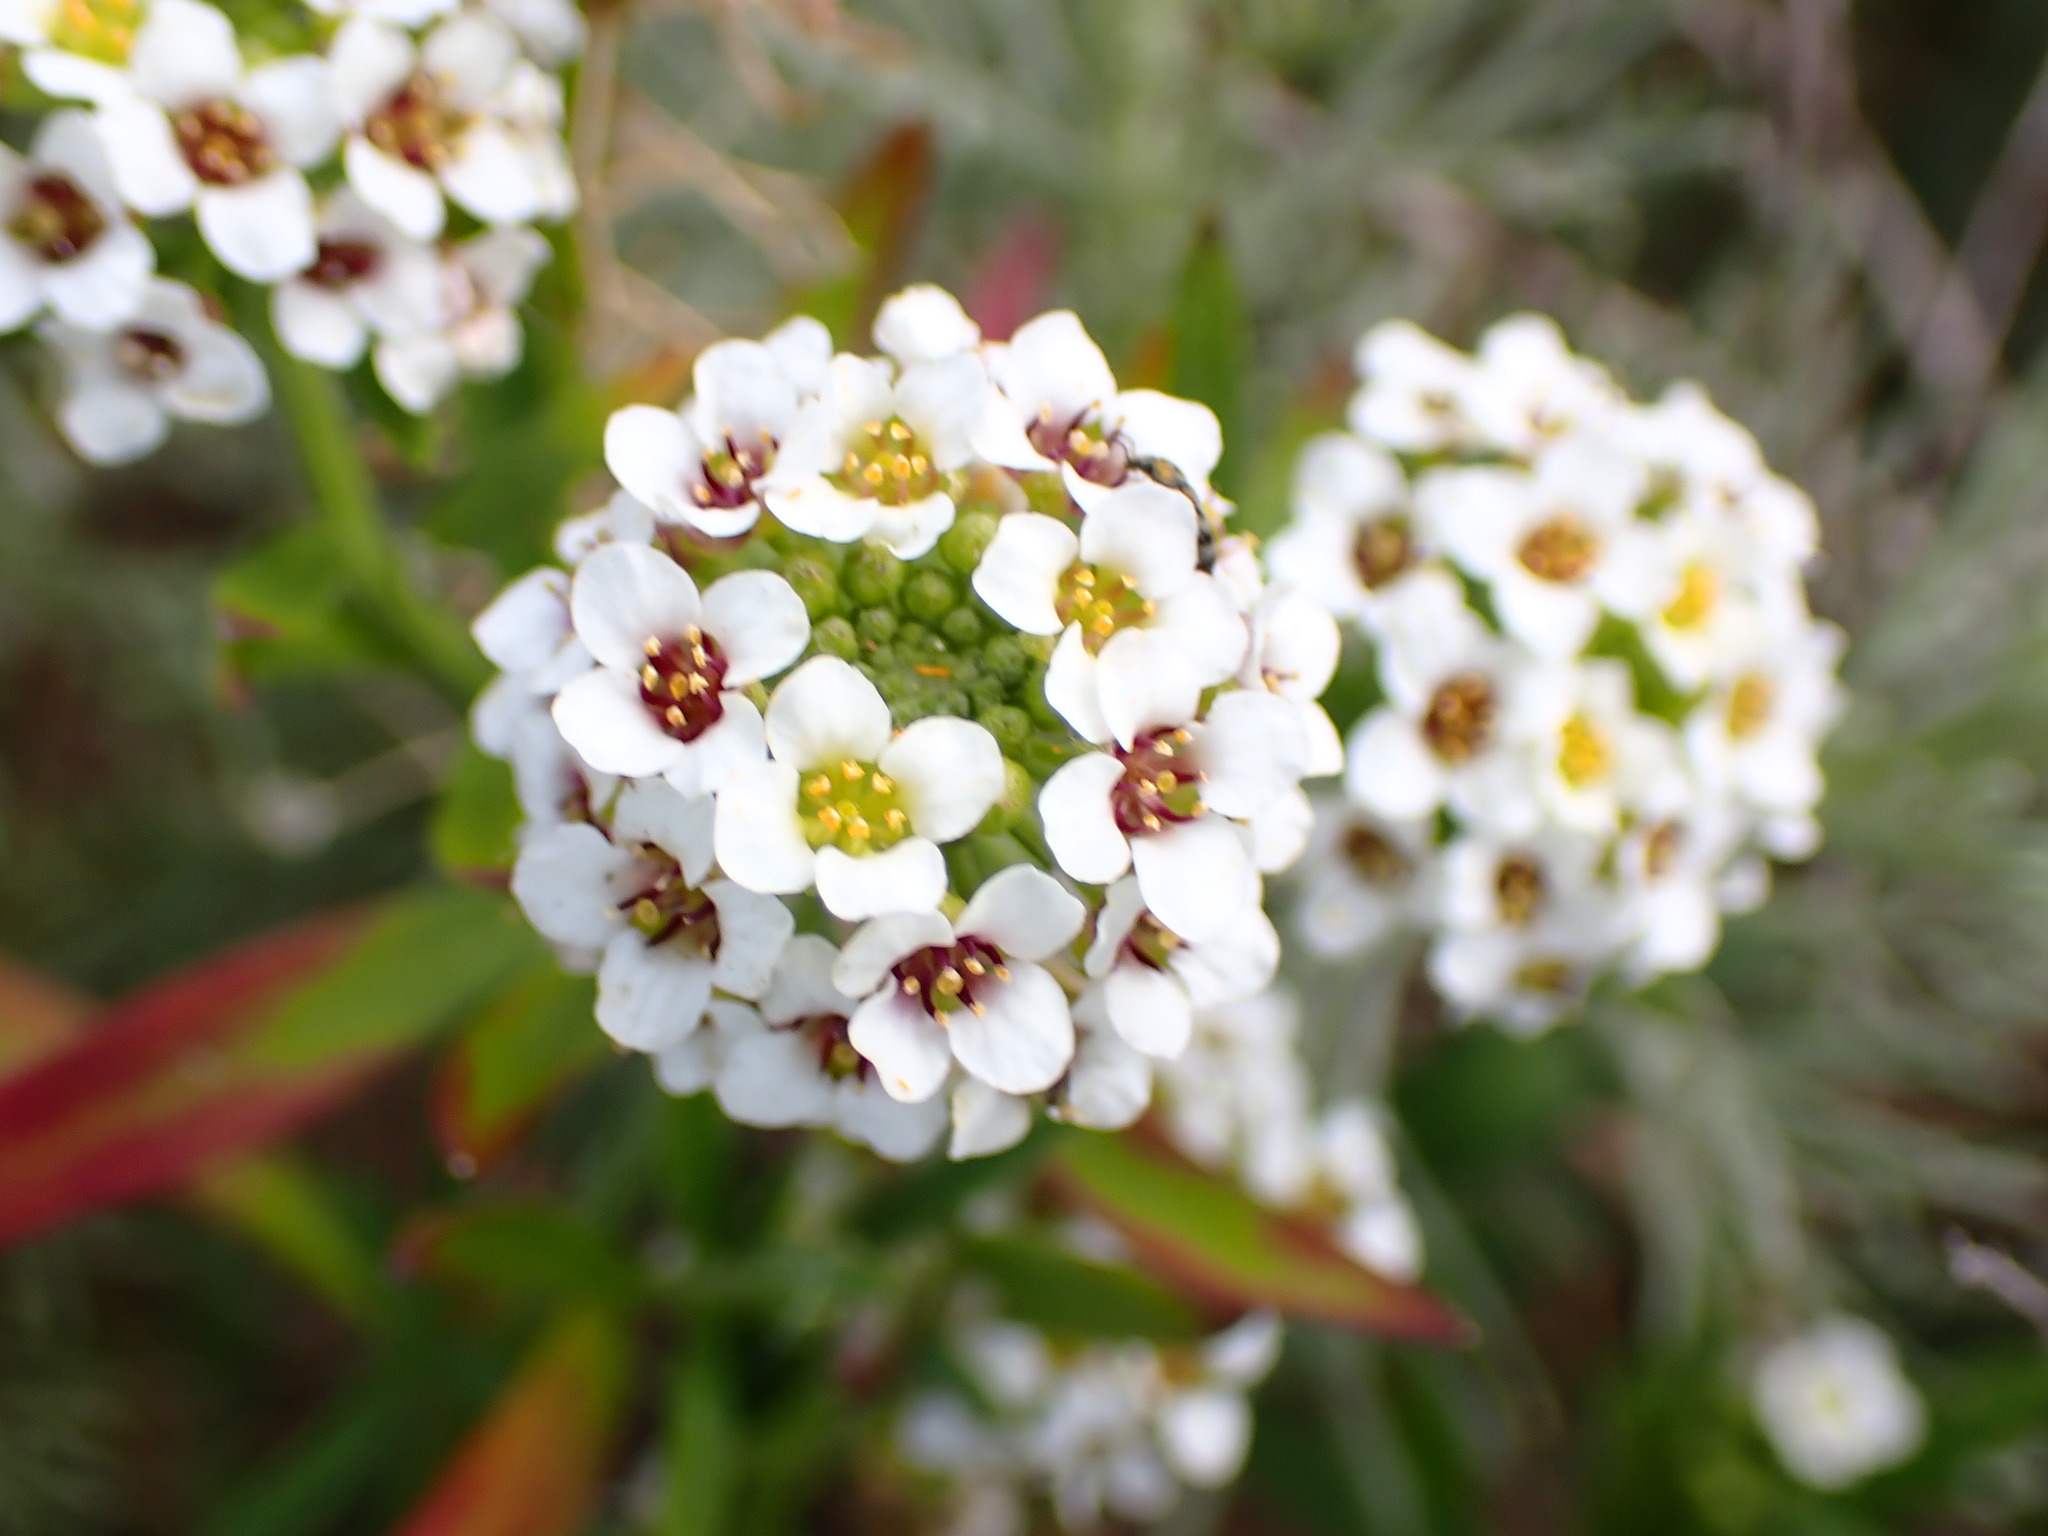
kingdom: Plantae
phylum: Tracheophyta
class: Magnoliopsida
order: Brassicales
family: Brassicaceae
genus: Lobularia
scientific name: Lobularia maritima
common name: Sweet alison
